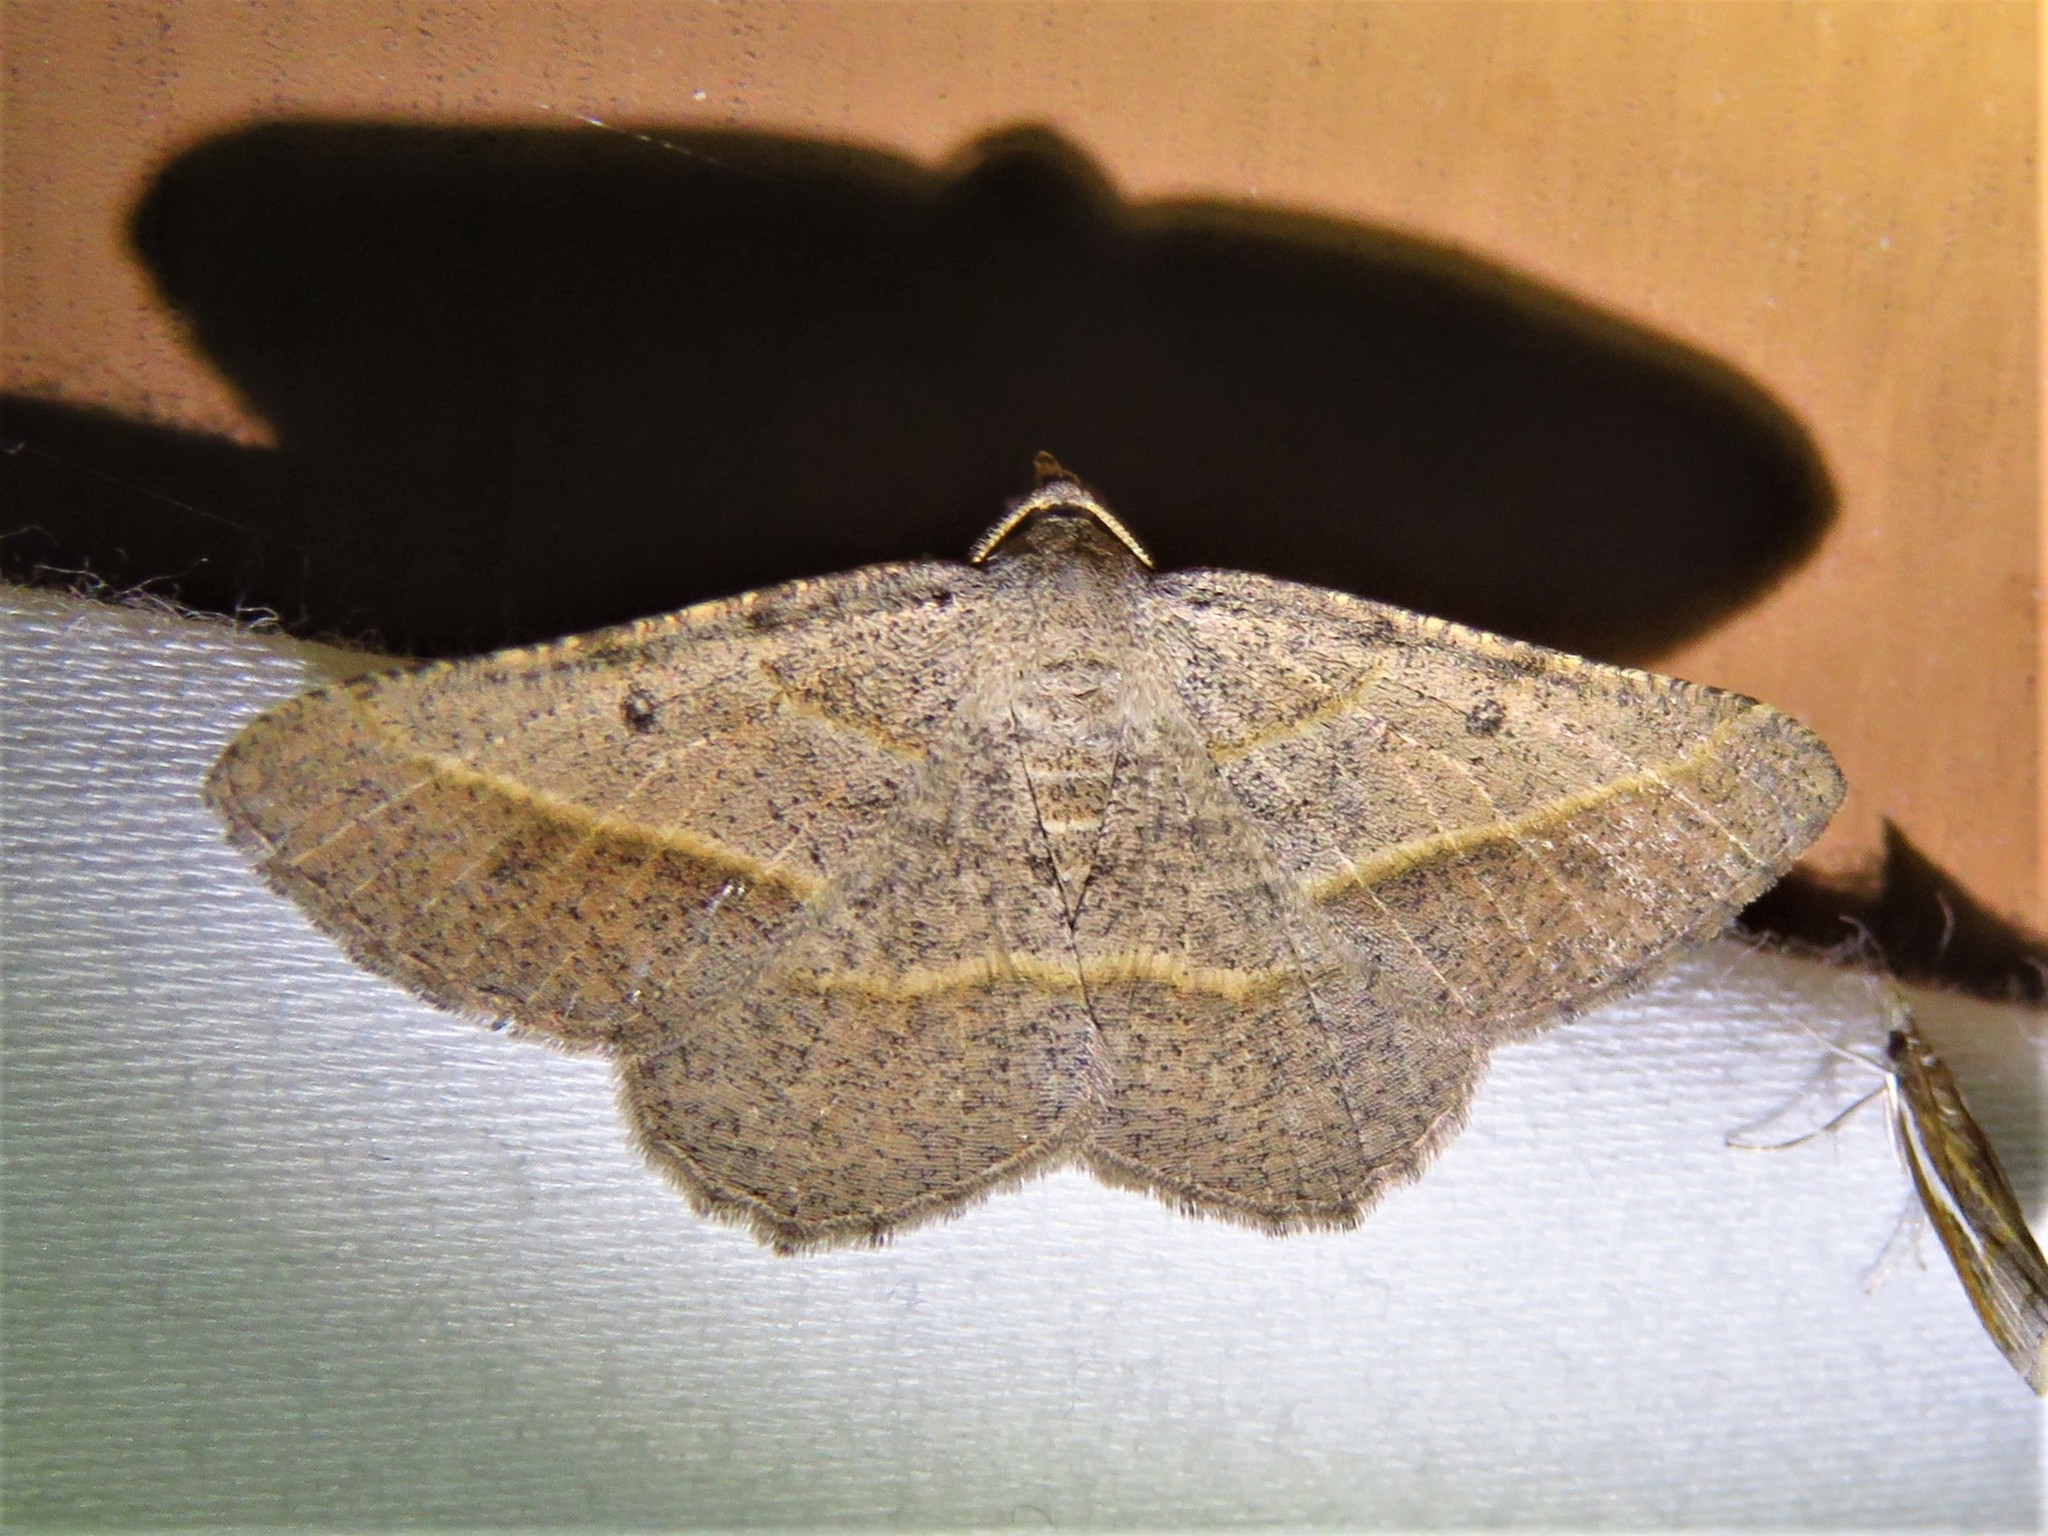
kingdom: Animalia
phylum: Arthropoda
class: Insecta
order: Lepidoptera
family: Geometridae
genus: Digrammia
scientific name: Digrammia irrorata
